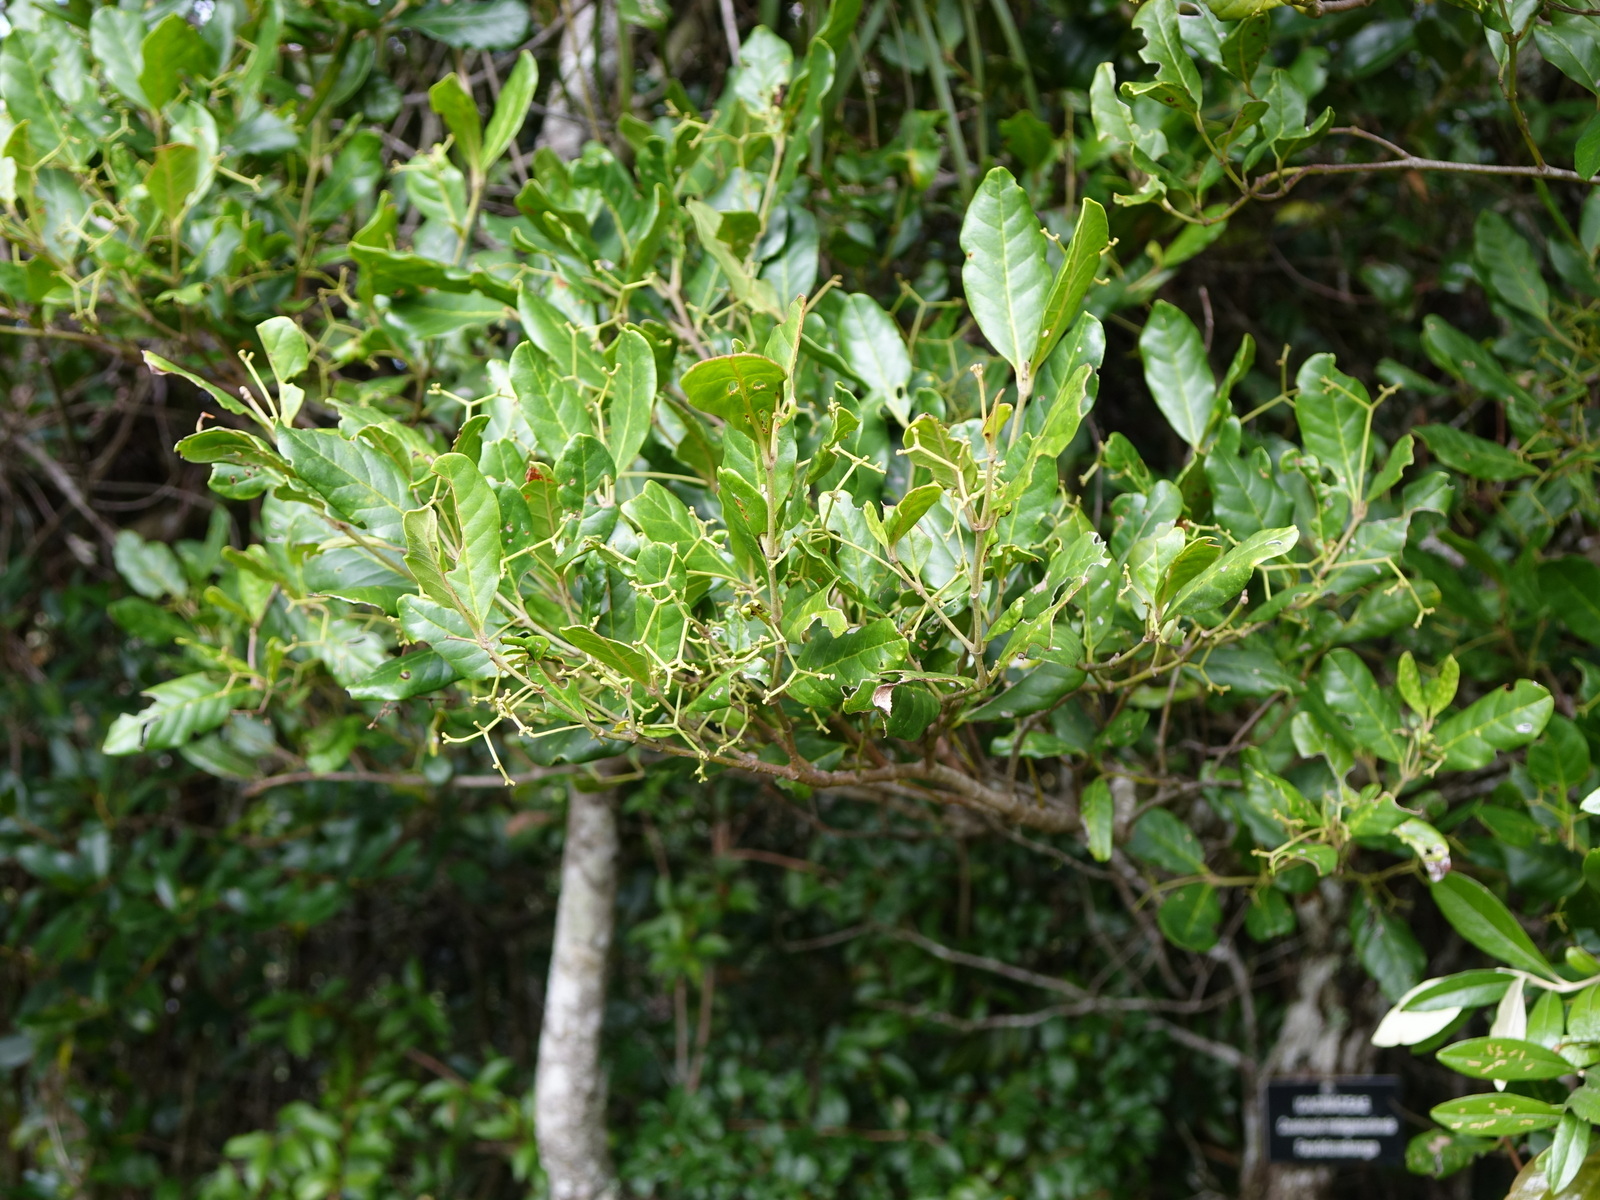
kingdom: Plantae
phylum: Tracheophyta
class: Magnoliopsida
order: Icacinales
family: Icacinaceae
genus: Cassinopsis
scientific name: Cassinopsis madagascariensis
